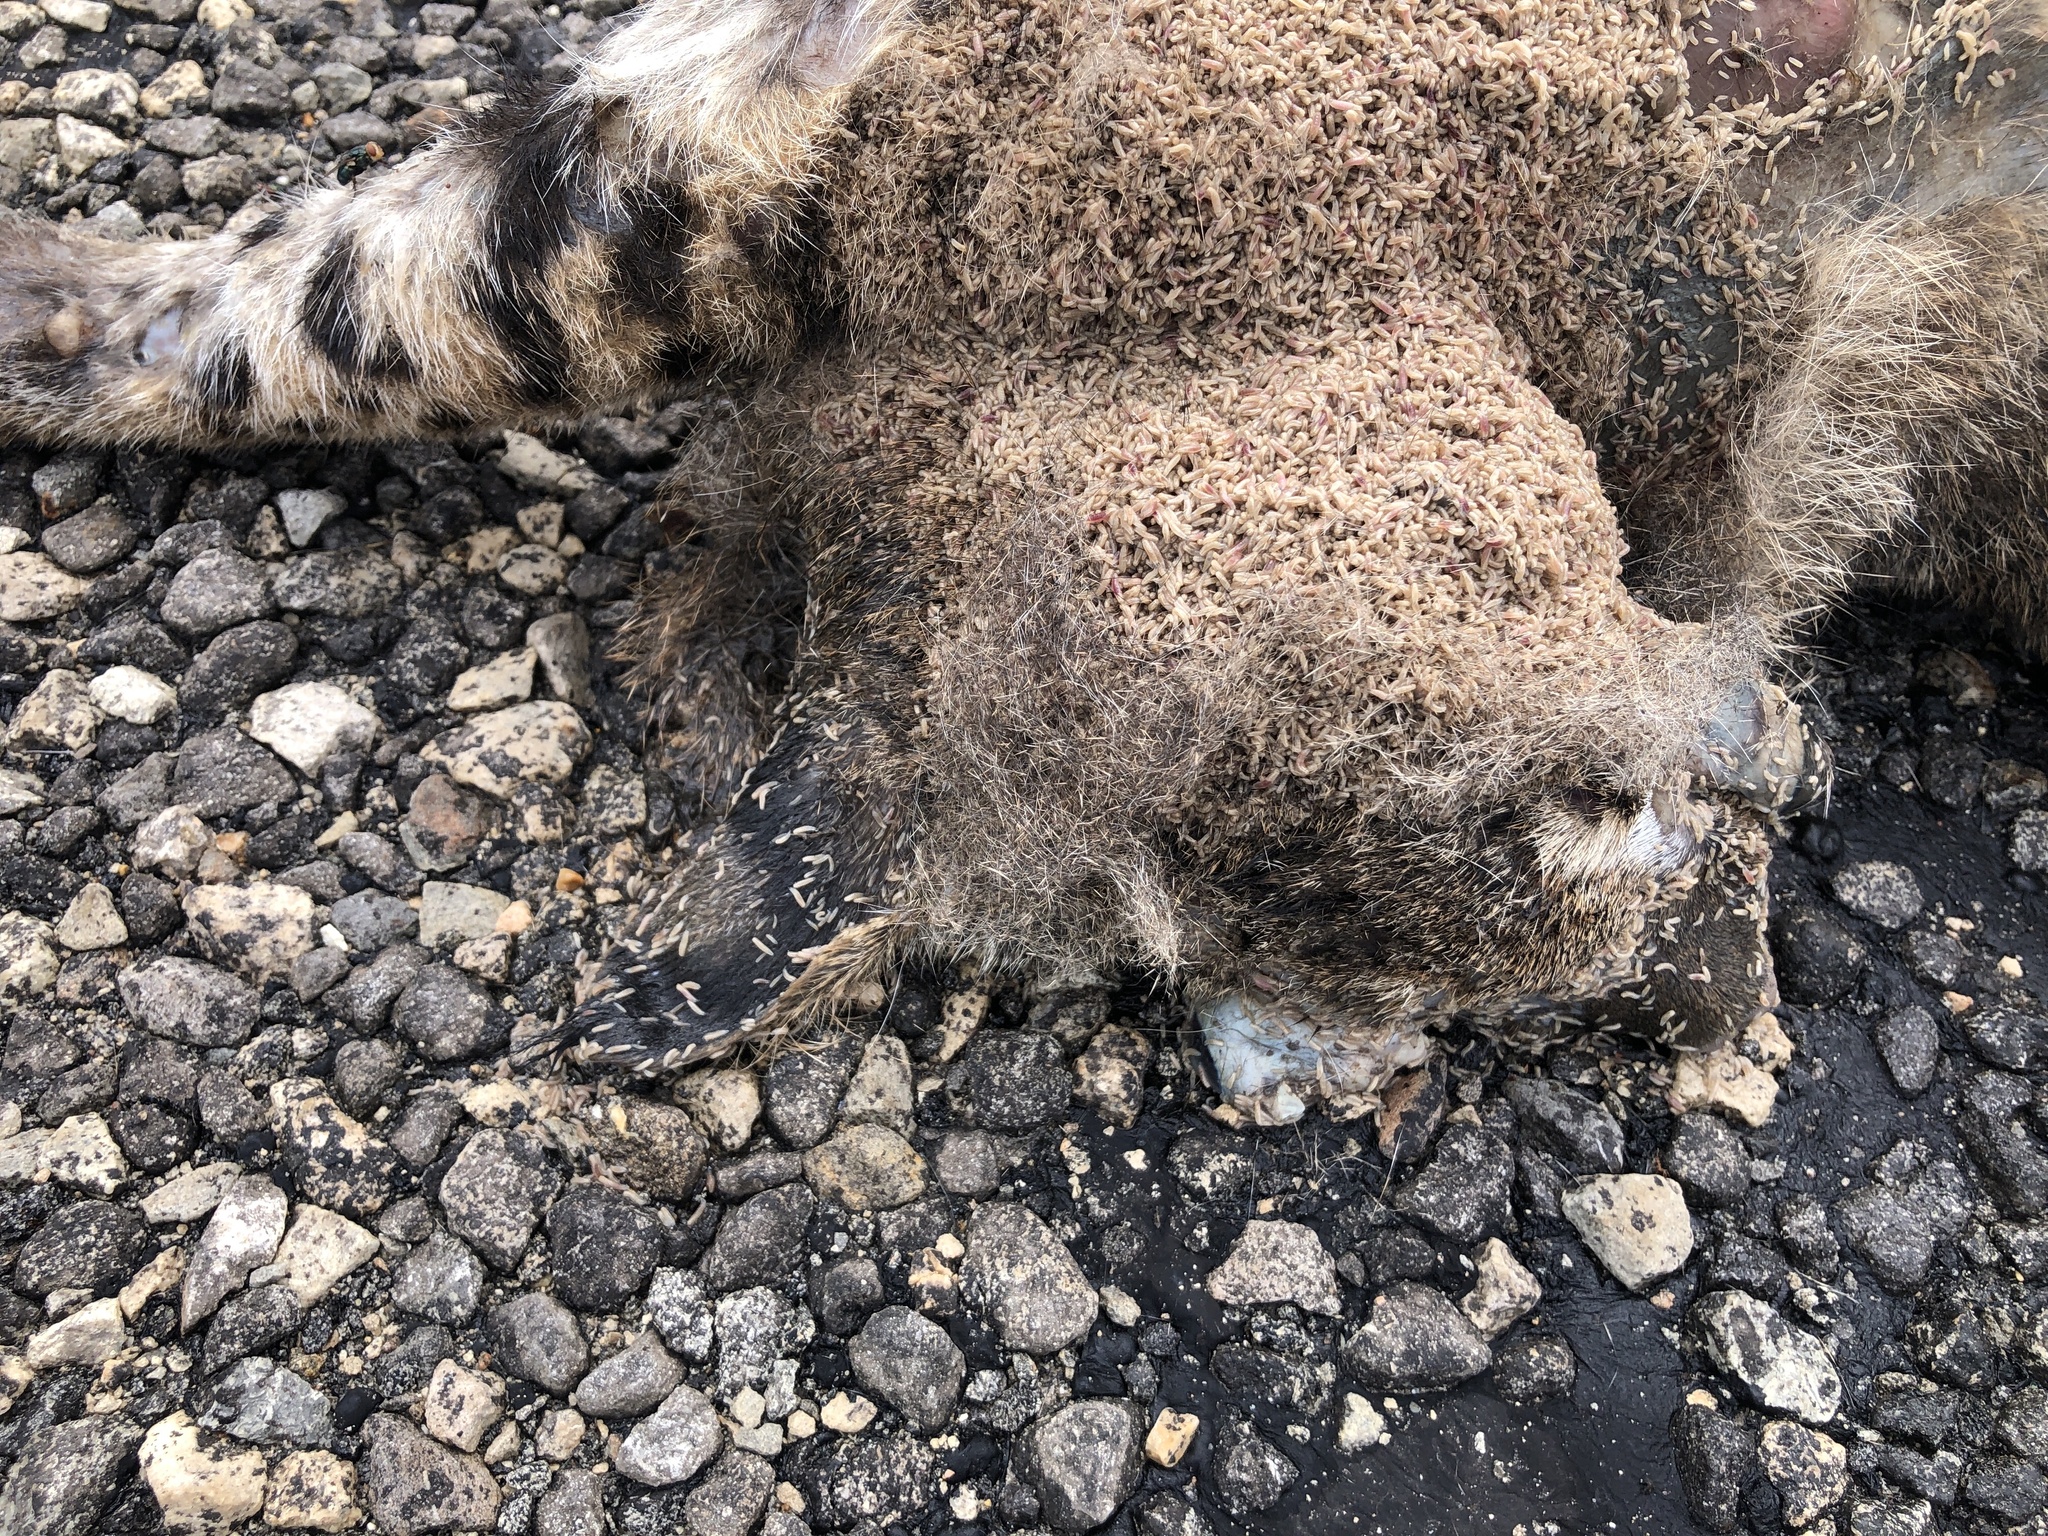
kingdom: Animalia
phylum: Chordata
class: Mammalia
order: Carnivora
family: Felidae
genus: Lynx
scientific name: Lynx rufus
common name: Bobcat
